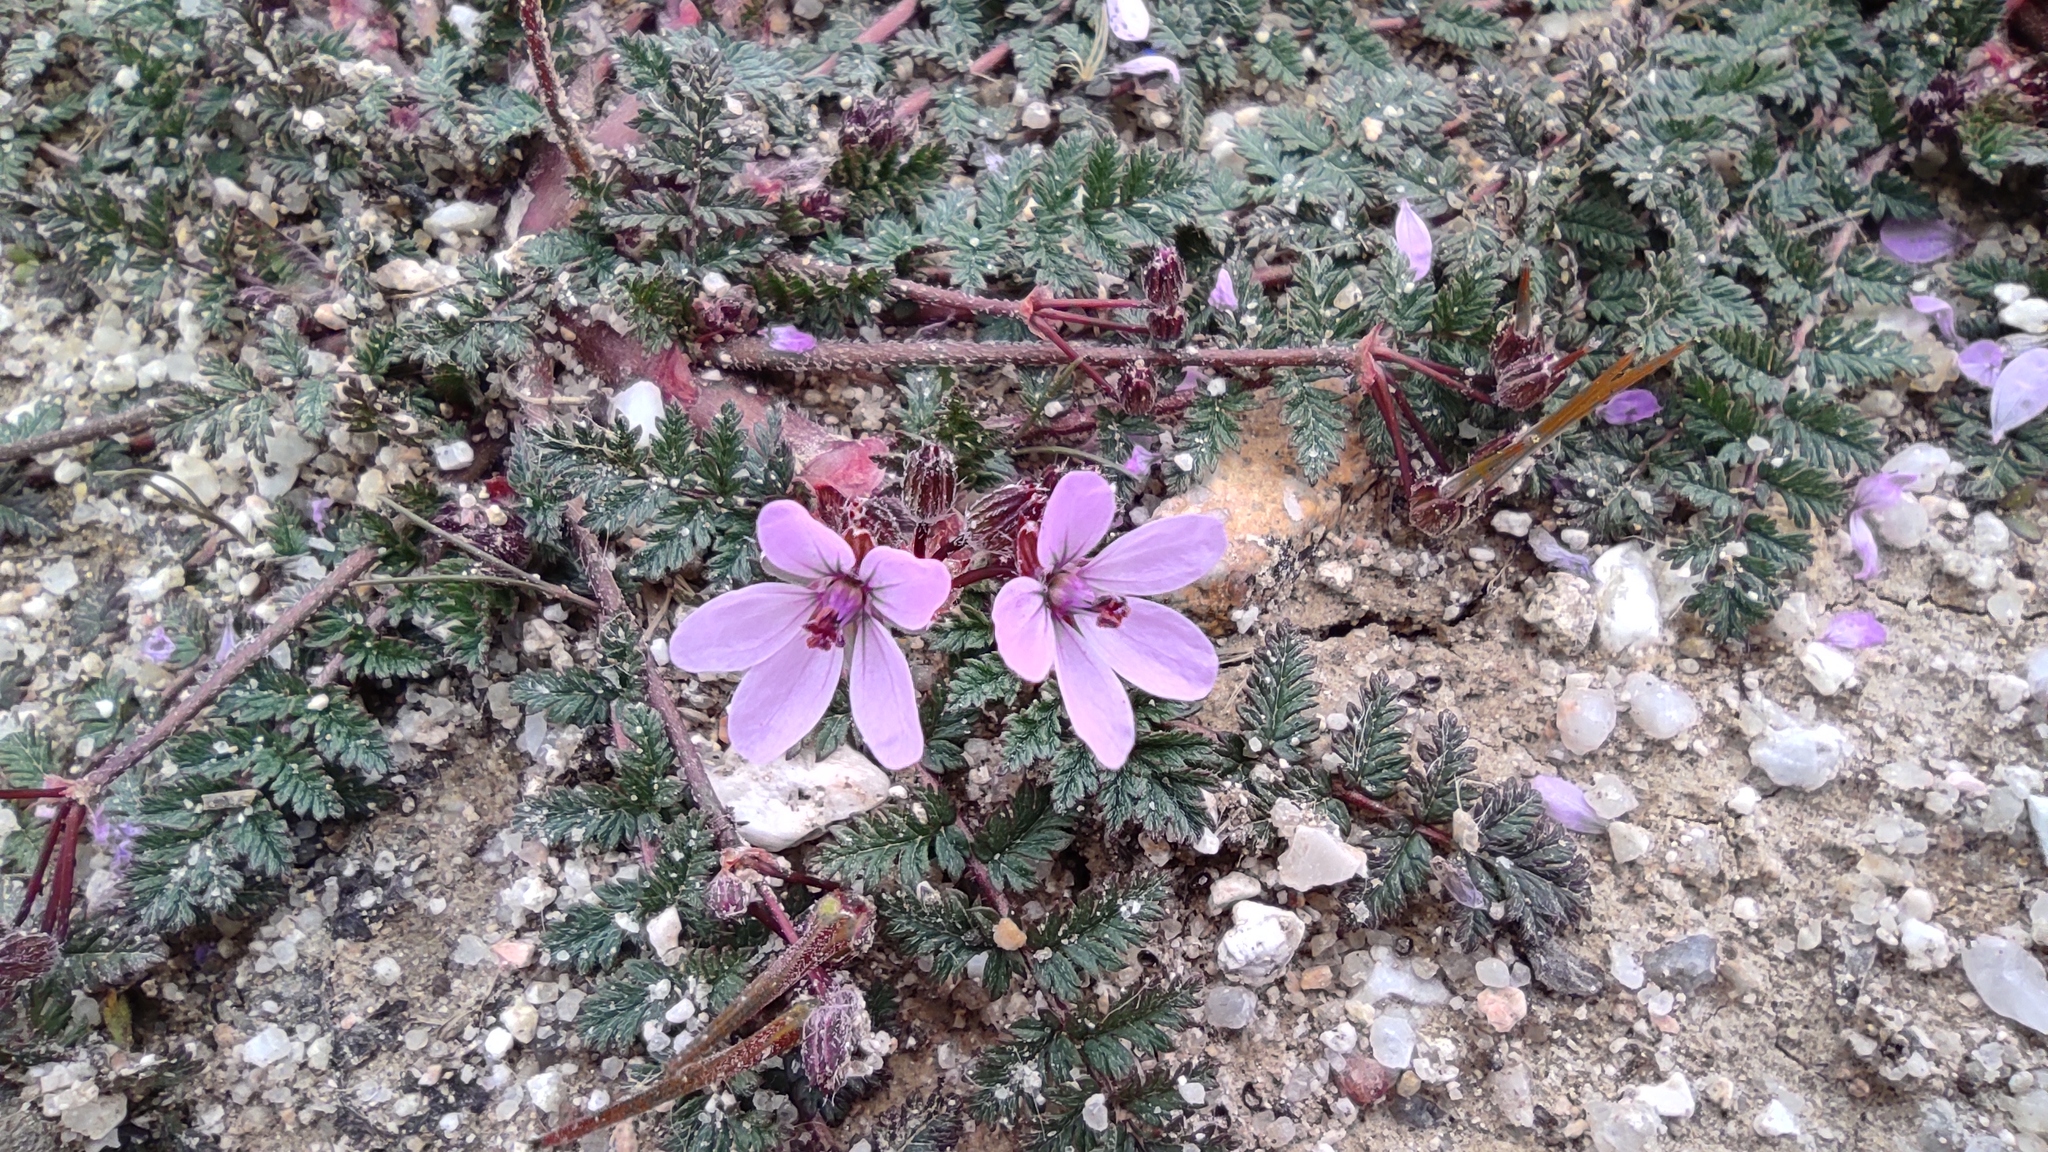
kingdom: Plantae
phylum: Tracheophyta
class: Magnoliopsida
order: Geraniales
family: Geraniaceae
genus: Erodium
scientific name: Erodium cicutarium
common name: Common stork's-bill
